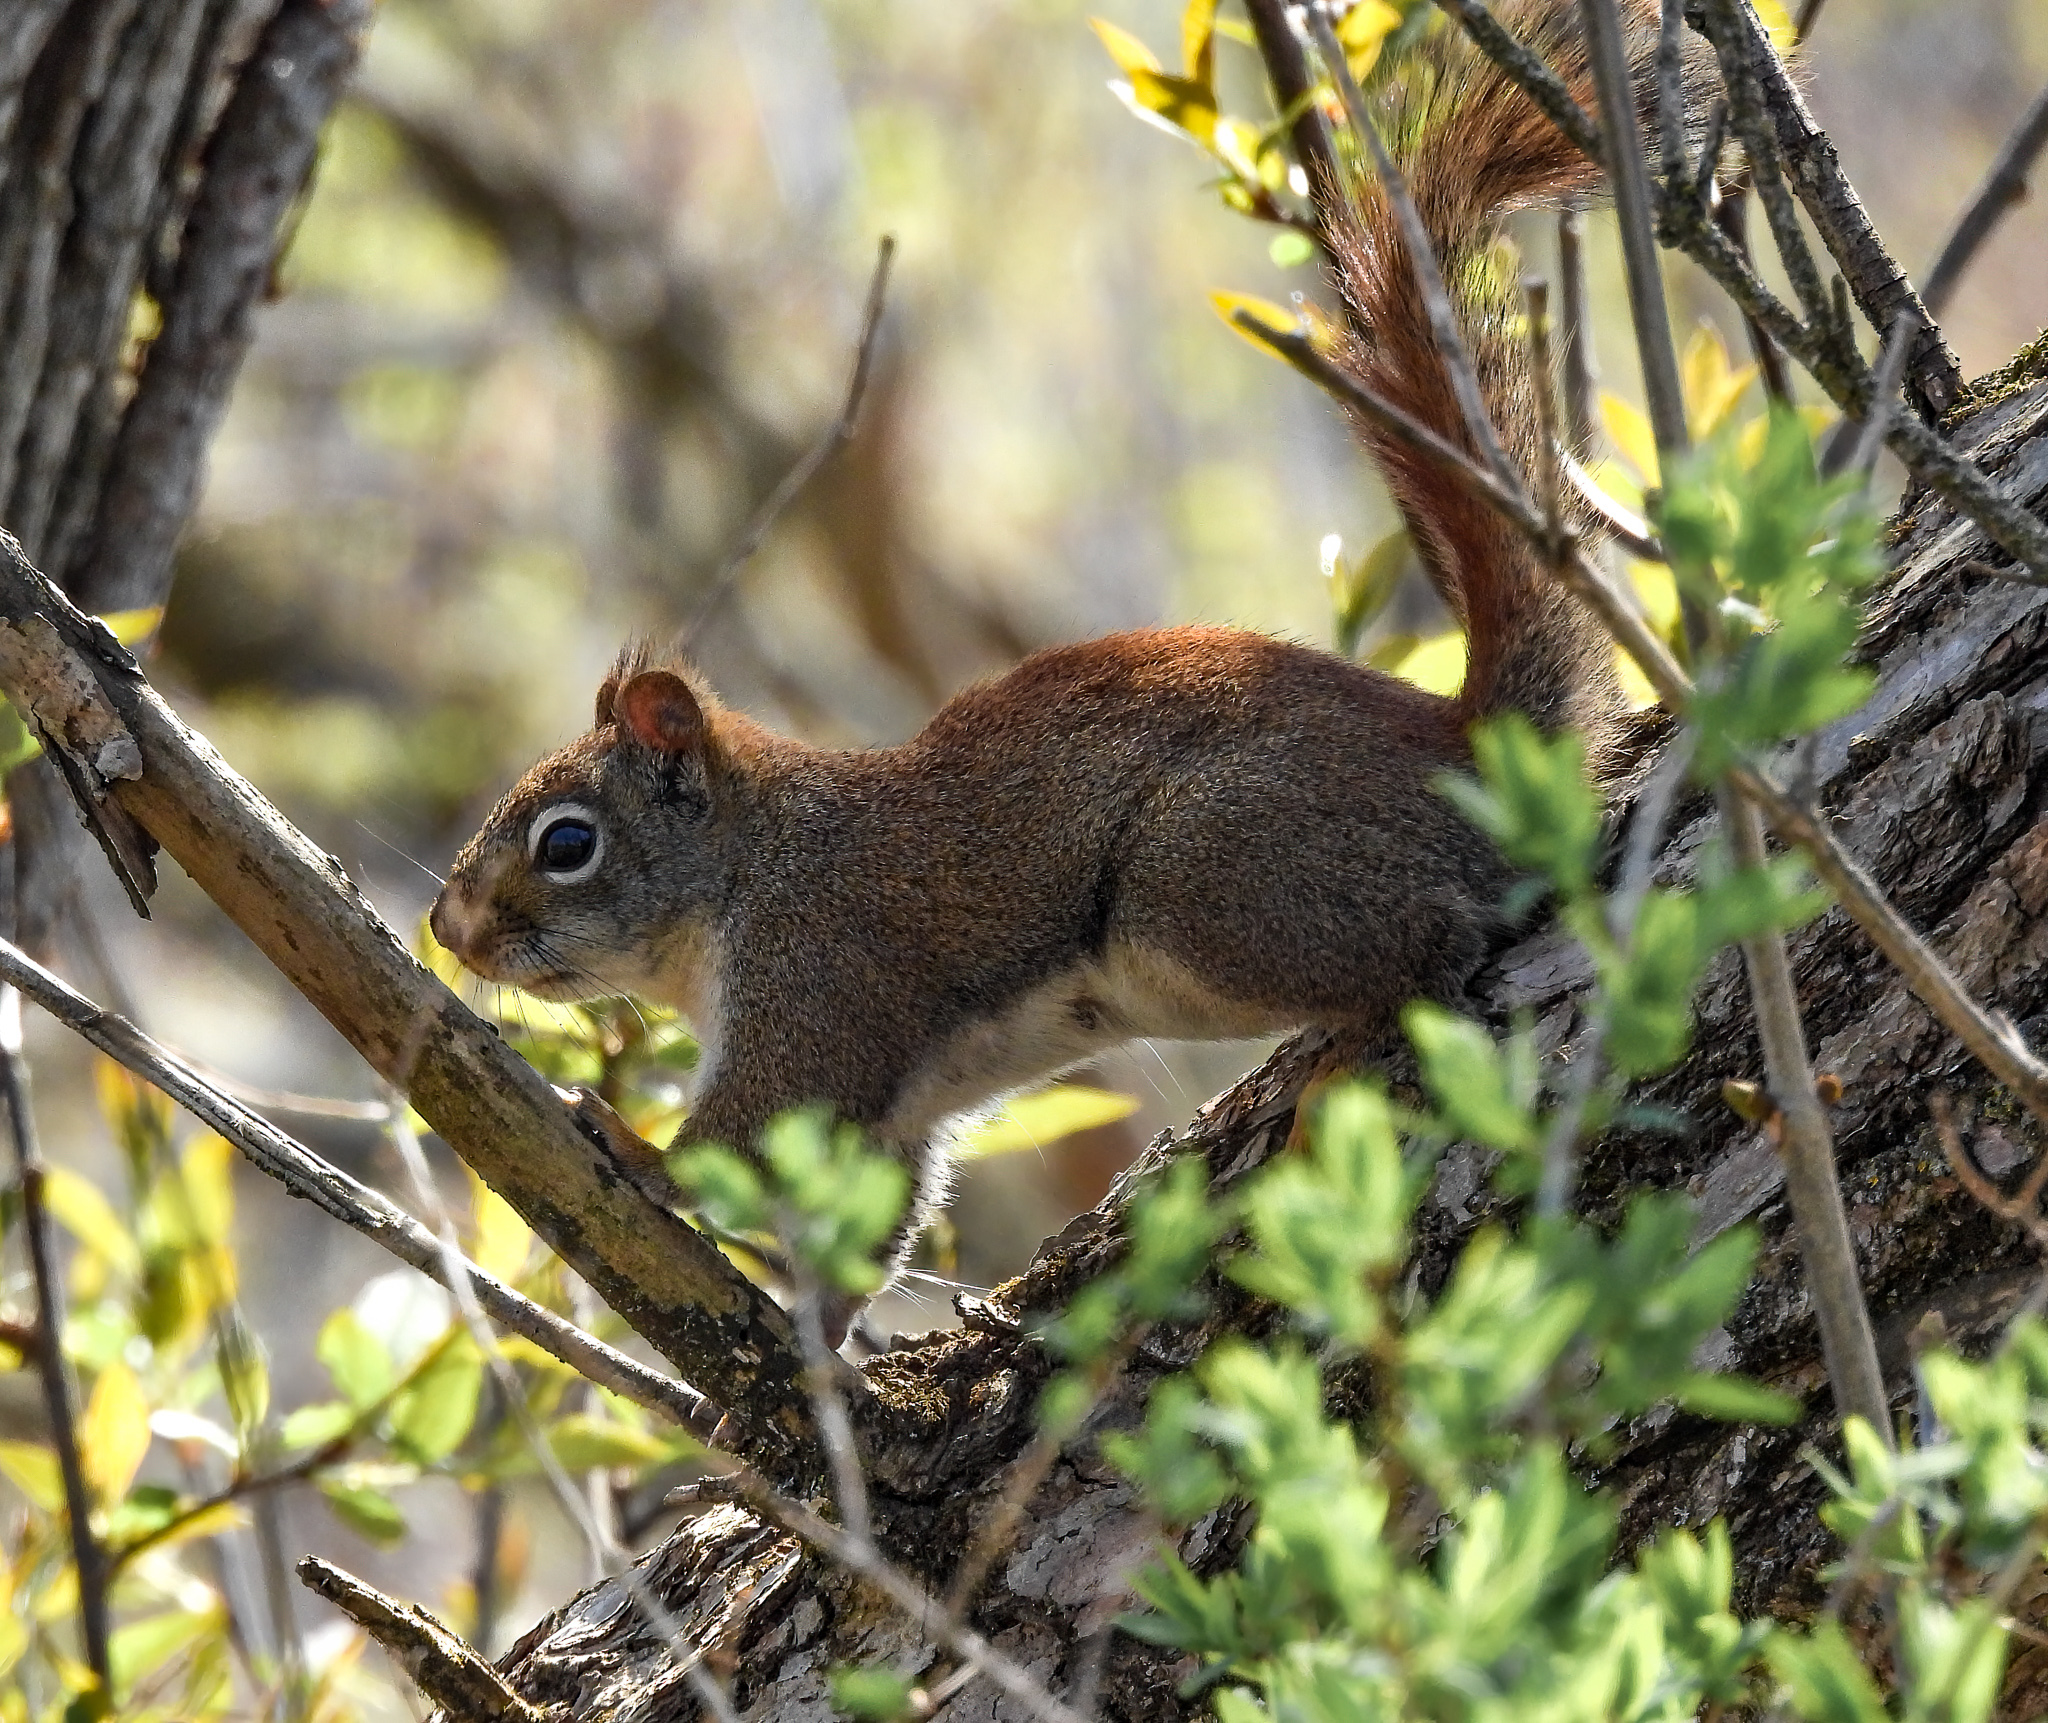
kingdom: Animalia
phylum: Chordata
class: Mammalia
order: Rodentia
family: Sciuridae
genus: Tamiasciurus
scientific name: Tamiasciurus hudsonicus
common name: Red squirrel
